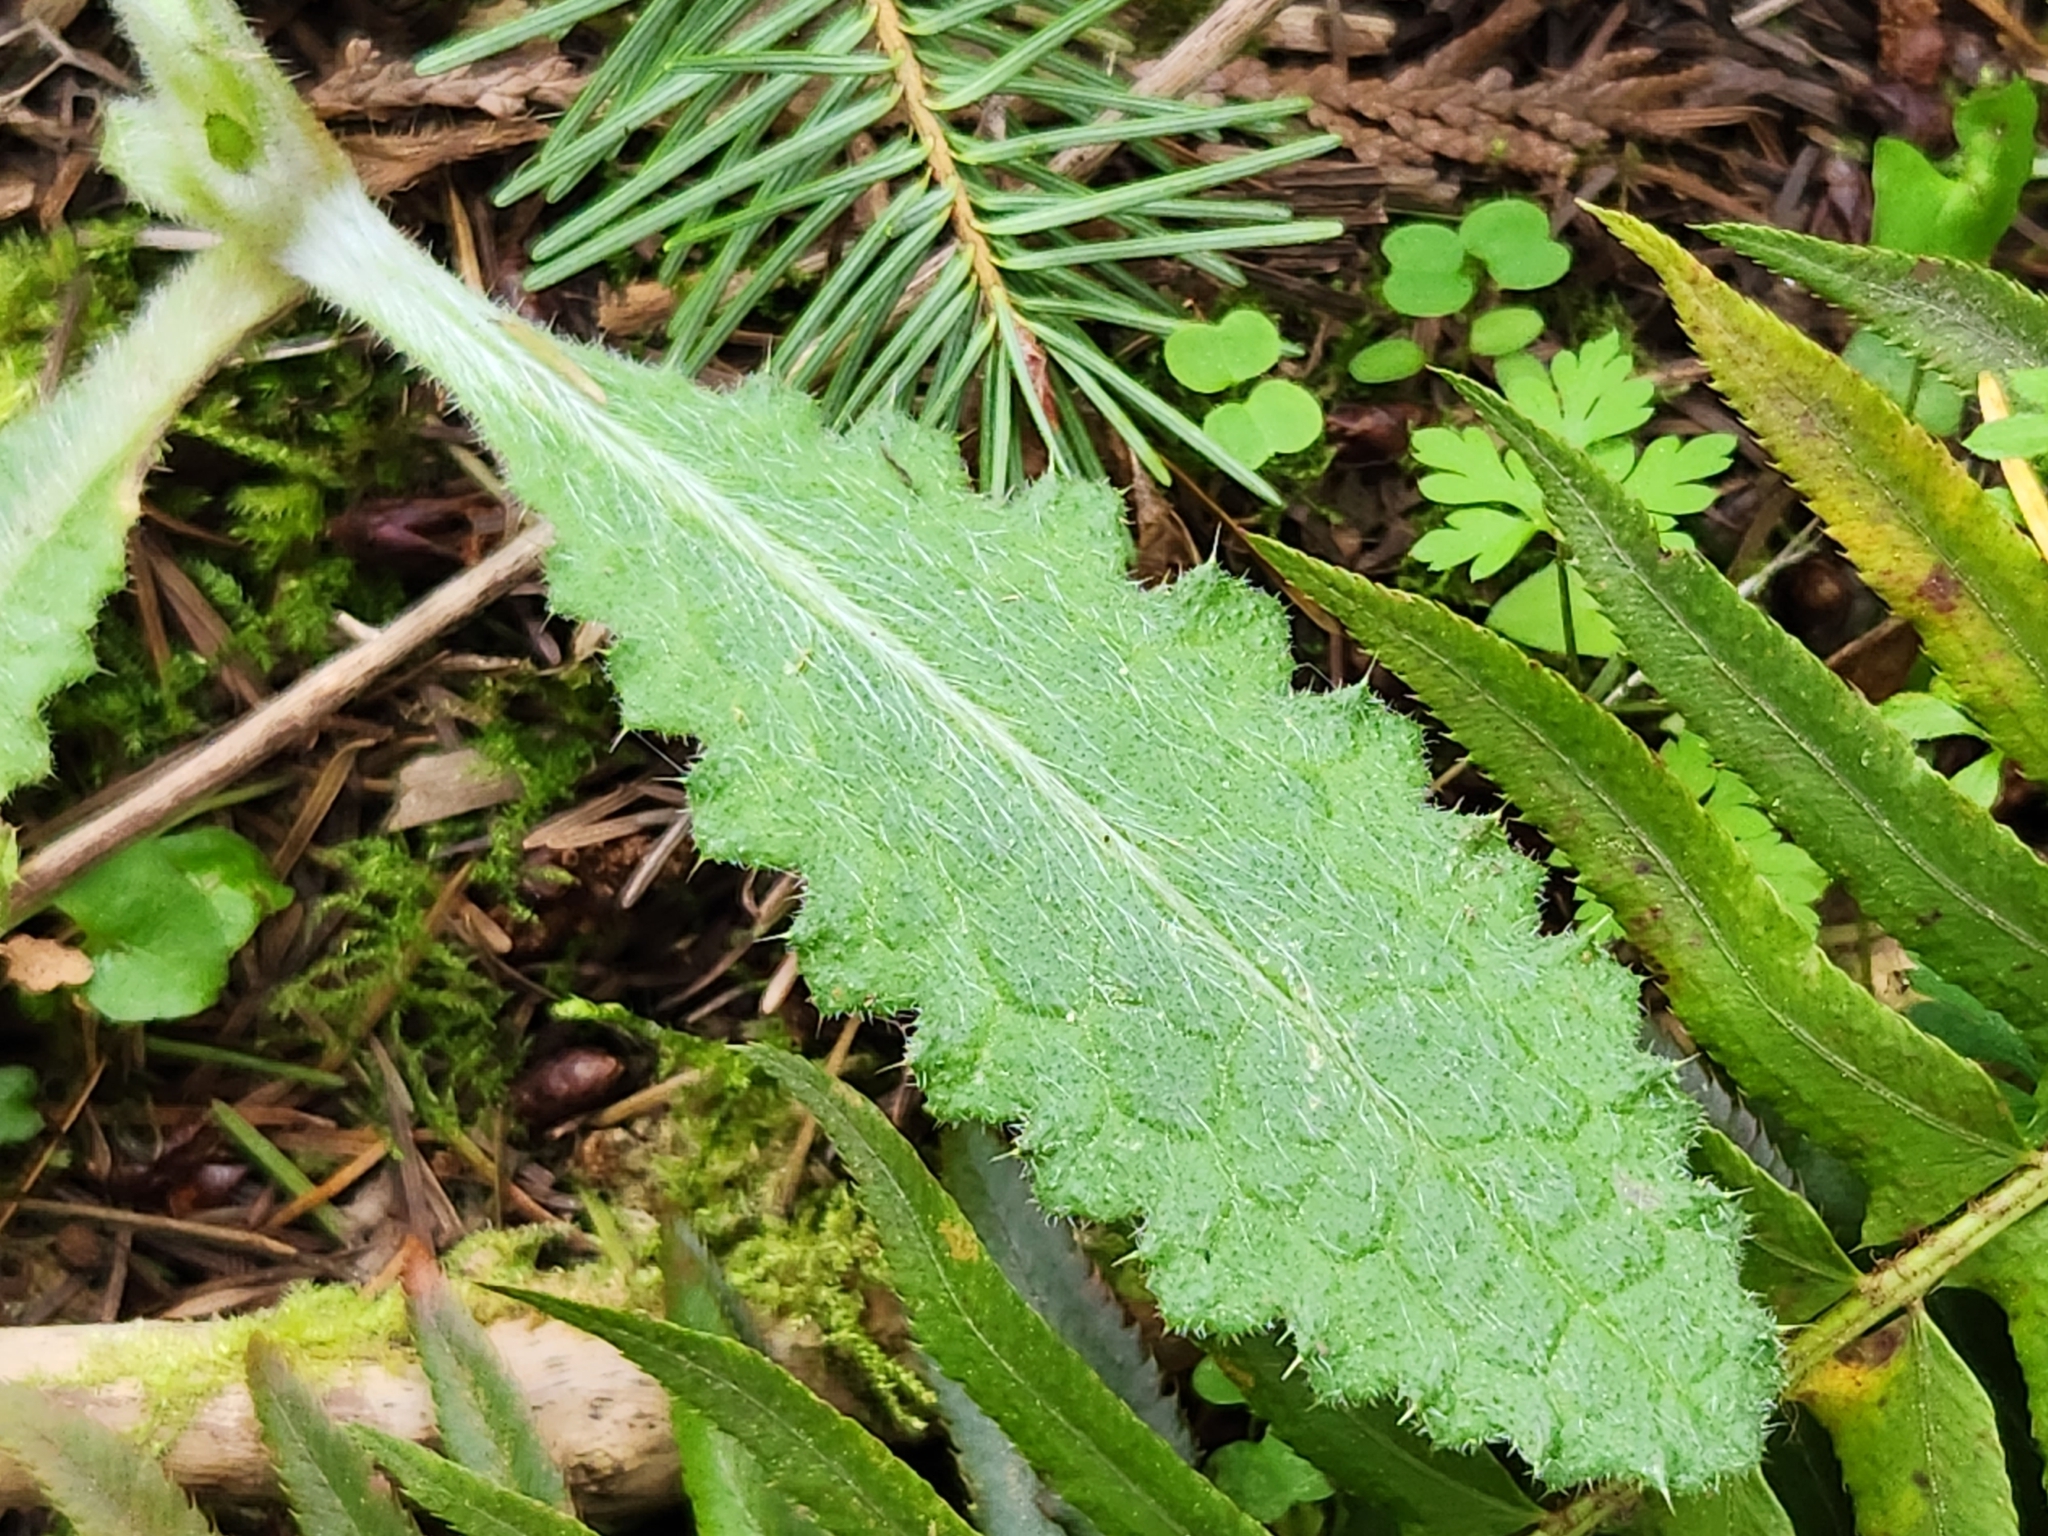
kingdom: Plantae
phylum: Tracheophyta
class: Magnoliopsida
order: Asterales
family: Asteraceae
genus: Cirsium
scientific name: Cirsium vulgare
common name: Bull thistle
